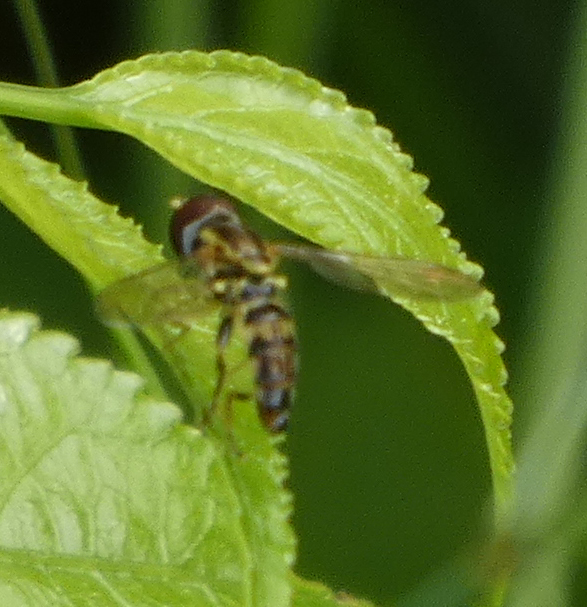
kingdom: Animalia
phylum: Arthropoda
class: Insecta
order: Diptera
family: Syrphidae
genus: Toxomerus
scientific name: Toxomerus geminatus
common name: Eastern calligrapher
